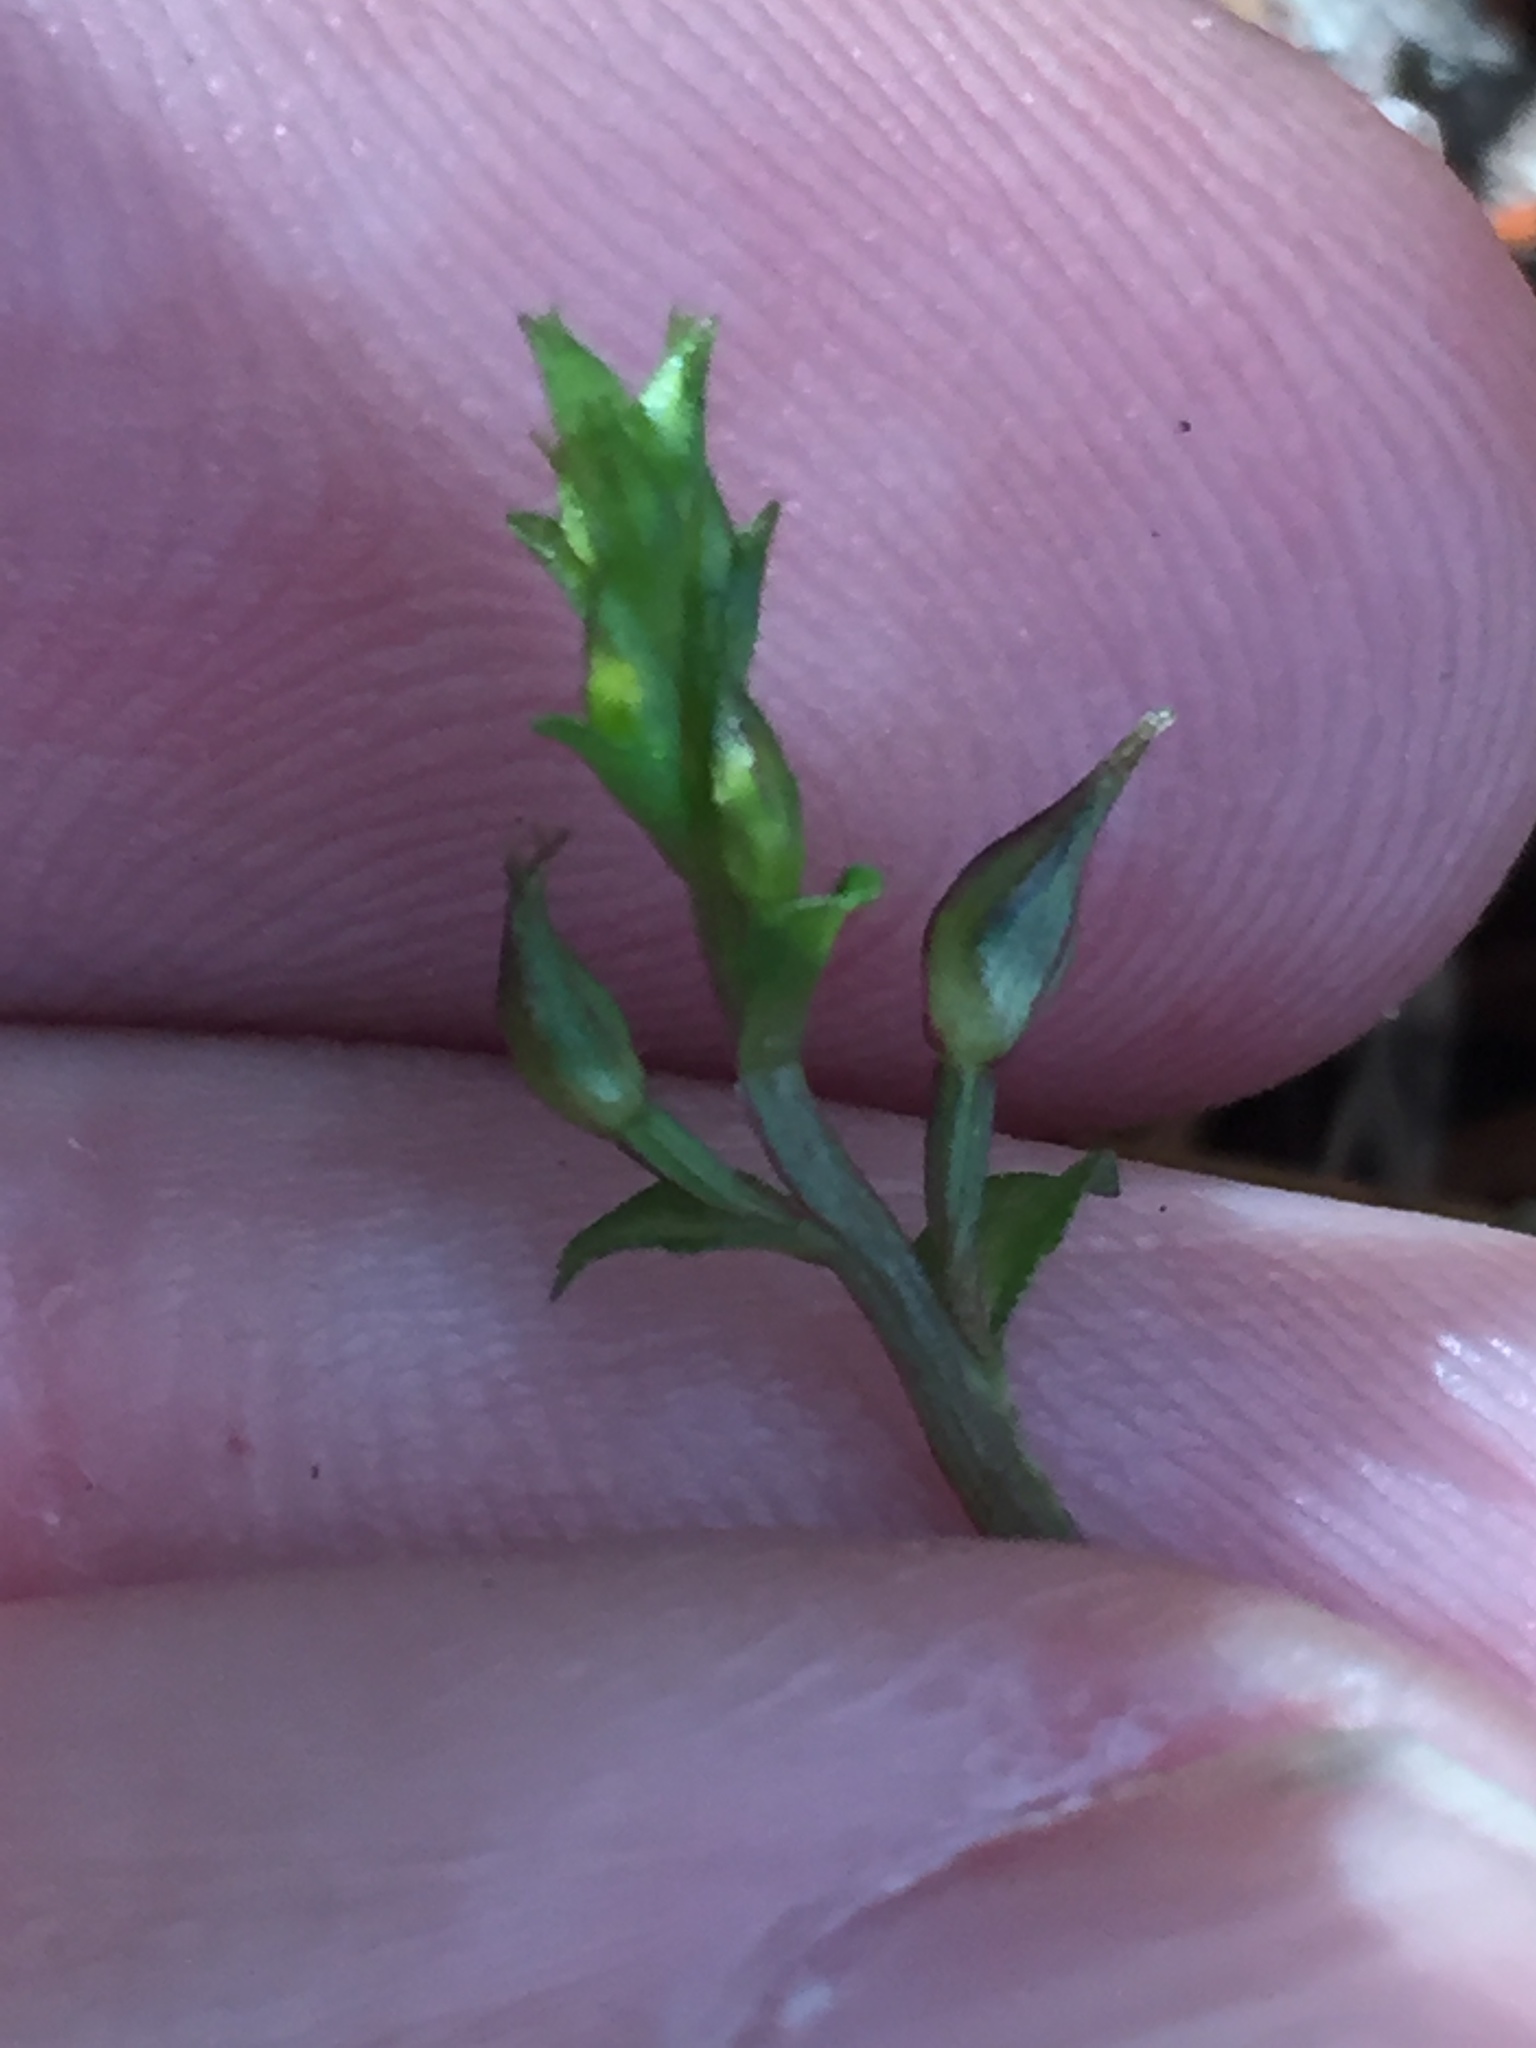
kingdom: Plantae
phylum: Tracheophyta
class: Liliopsida
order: Asparagales
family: Orchidaceae
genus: Acianthus
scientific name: Acianthus sinclairii
